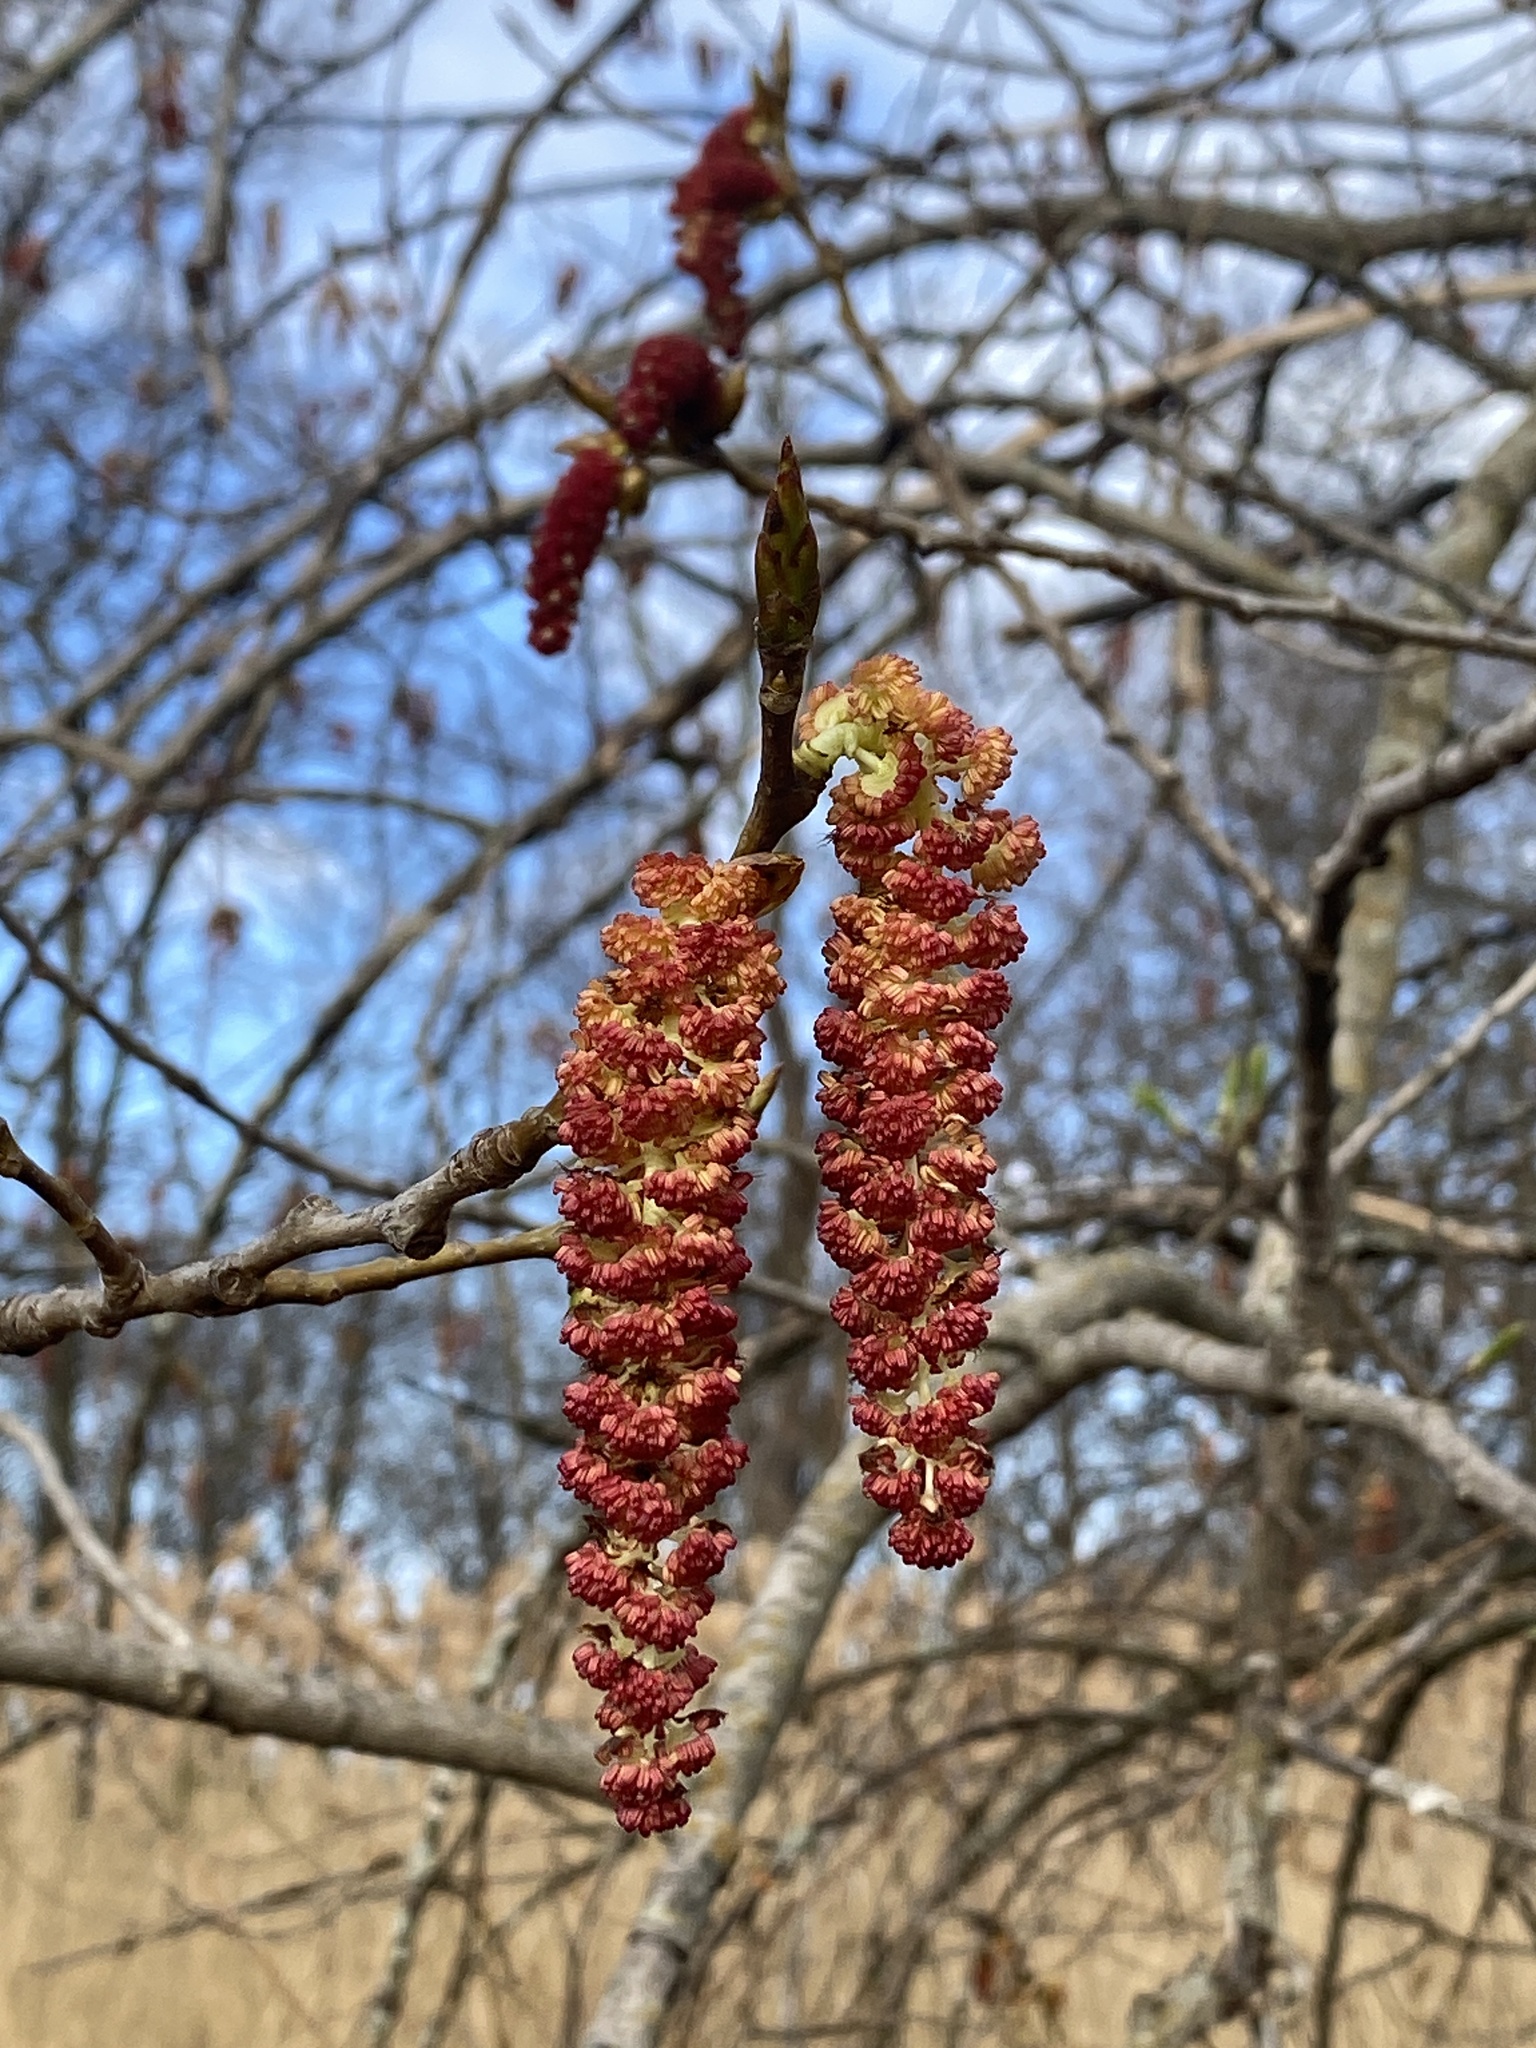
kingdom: Plantae
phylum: Tracheophyta
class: Magnoliopsida
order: Malpighiales
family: Salicaceae
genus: Populus
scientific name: Populus deltoides
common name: Eastern cottonwood
